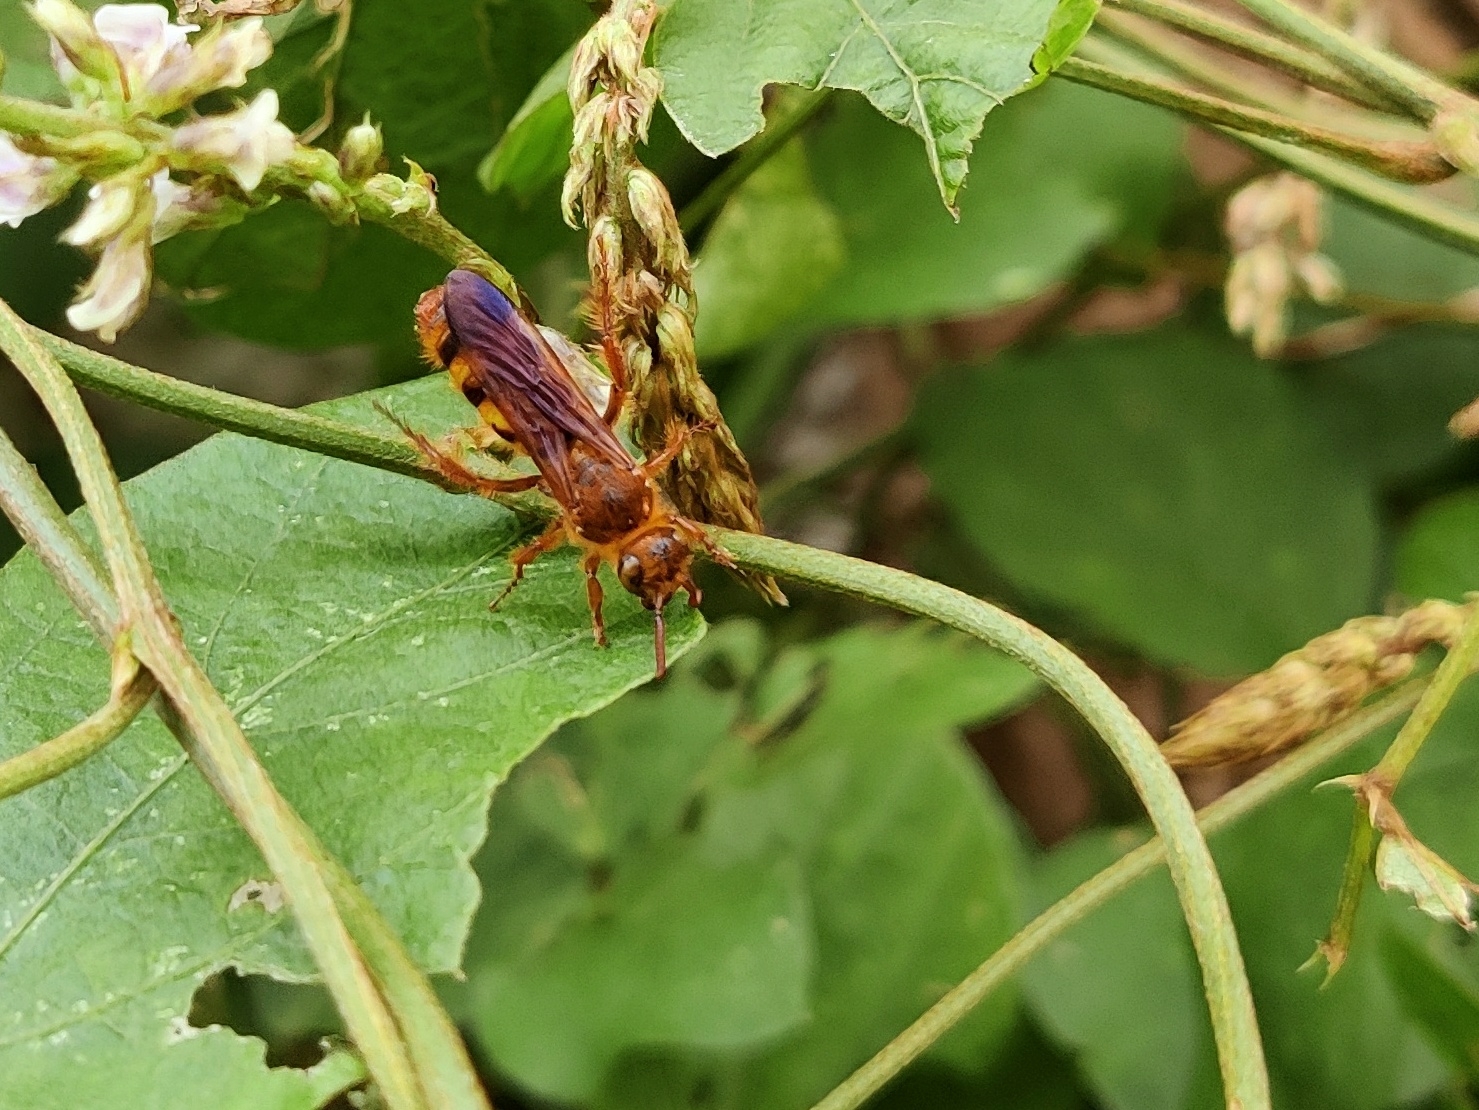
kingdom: Animalia
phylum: Arthropoda
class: Insecta
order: Hymenoptera
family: Scoliidae
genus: Phalerimeris
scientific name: Phalerimeris
